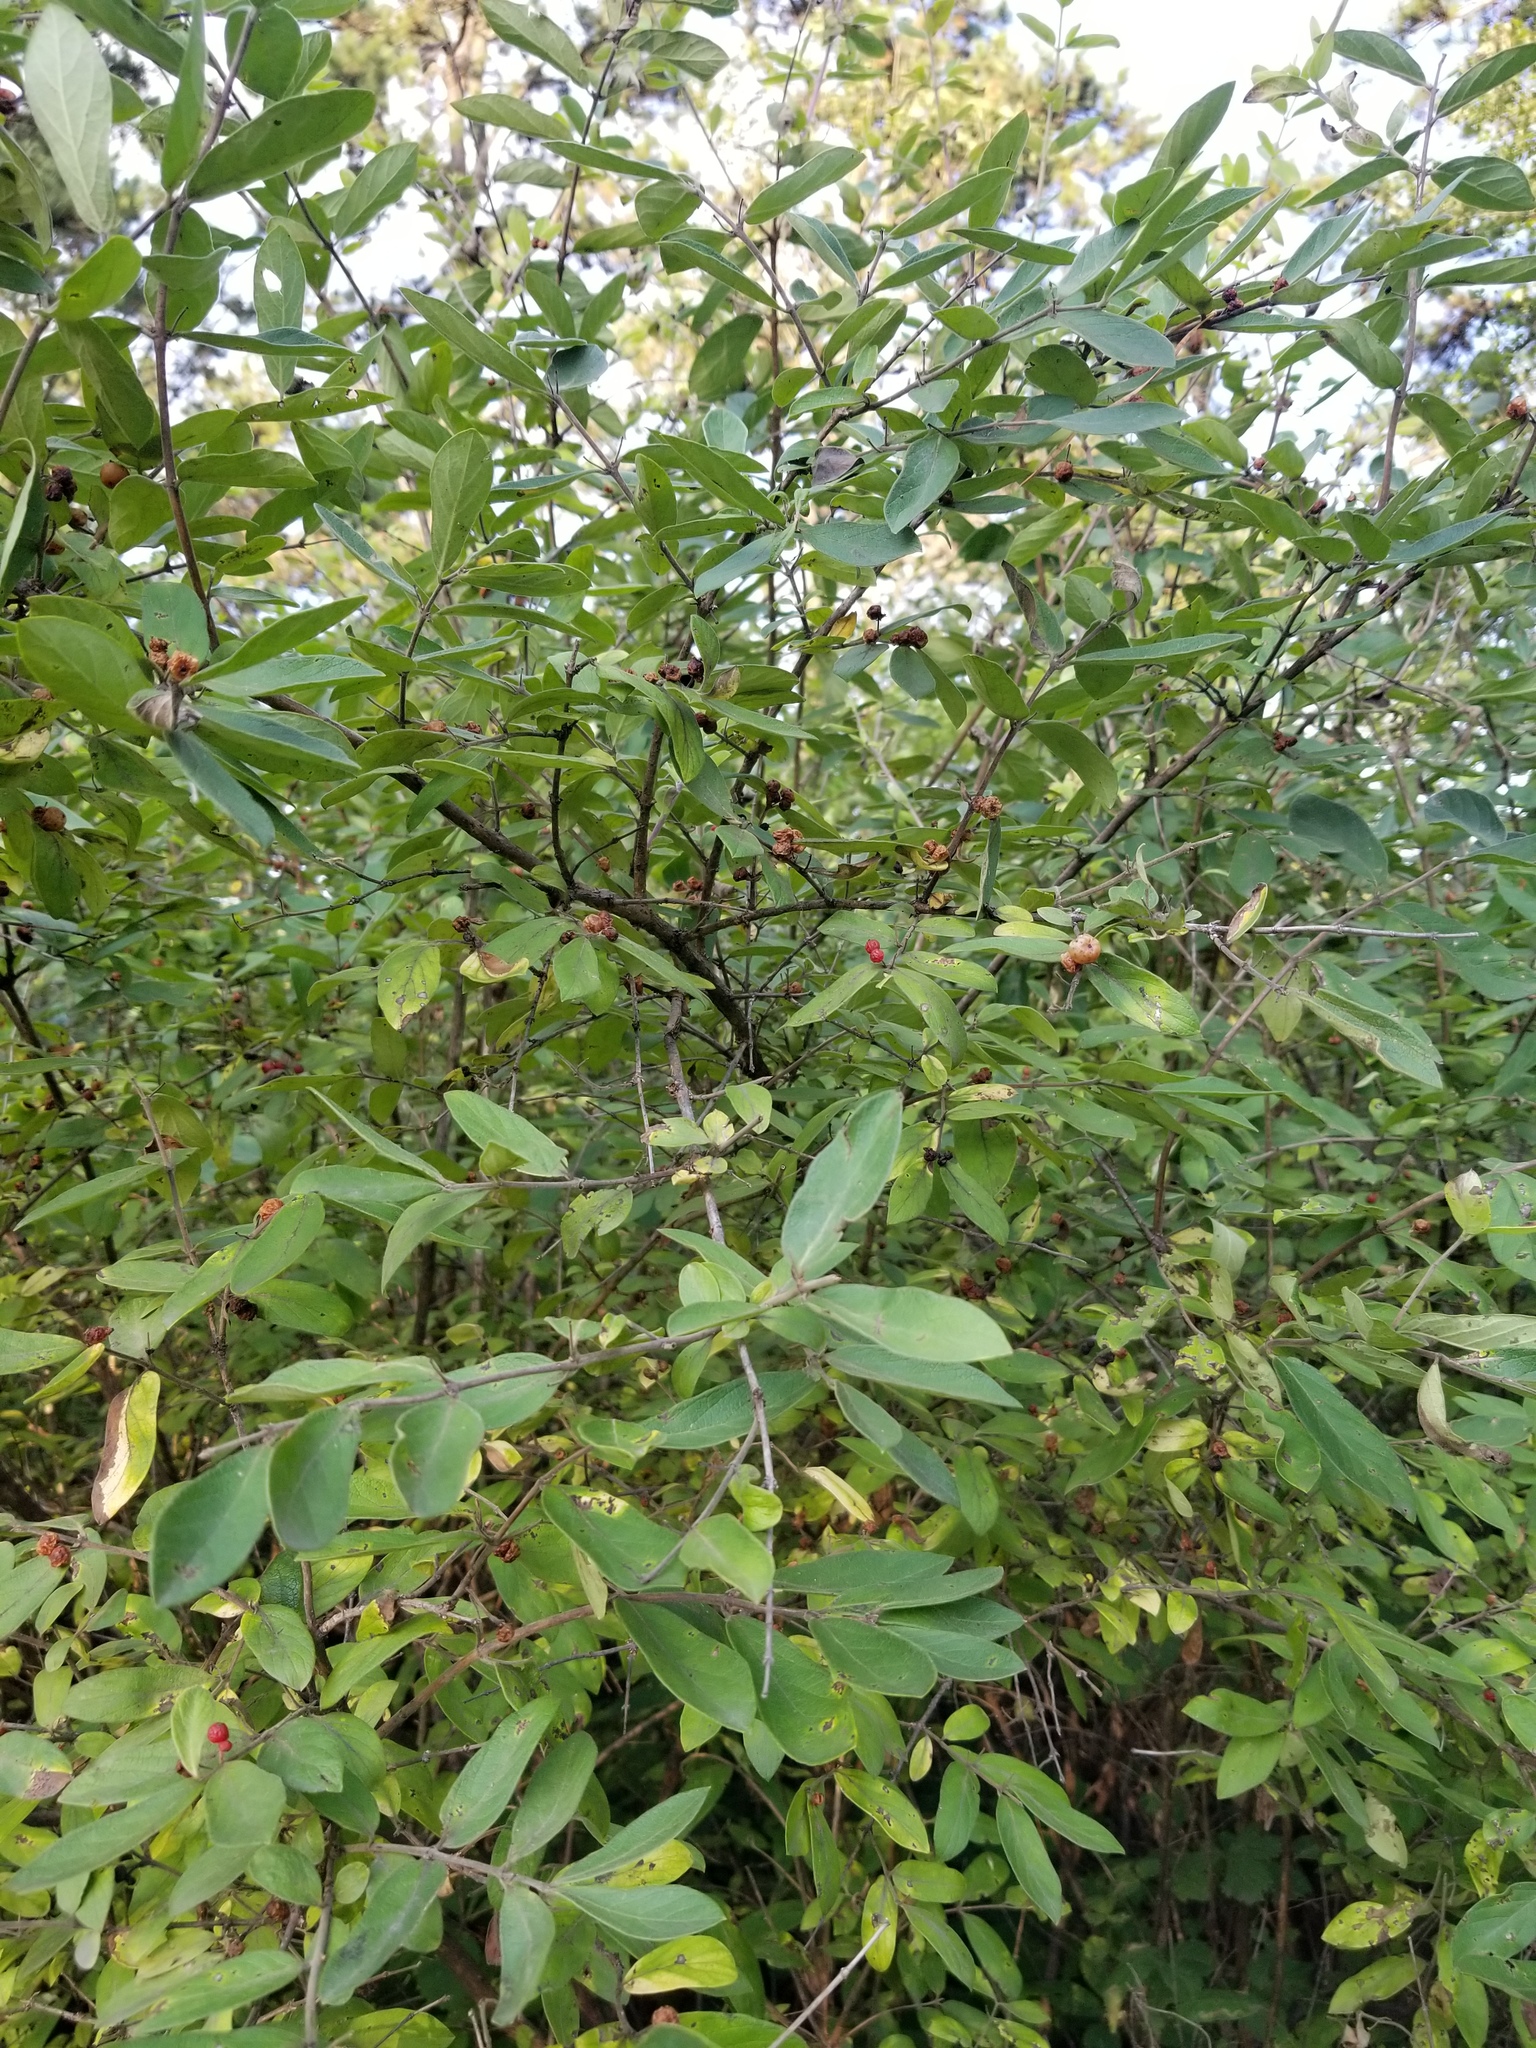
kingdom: Plantae
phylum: Tracheophyta
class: Magnoliopsida
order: Rosales
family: Elaeagnaceae
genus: Elaeagnus
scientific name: Elaeagnus umbellata
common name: Autumn olive
